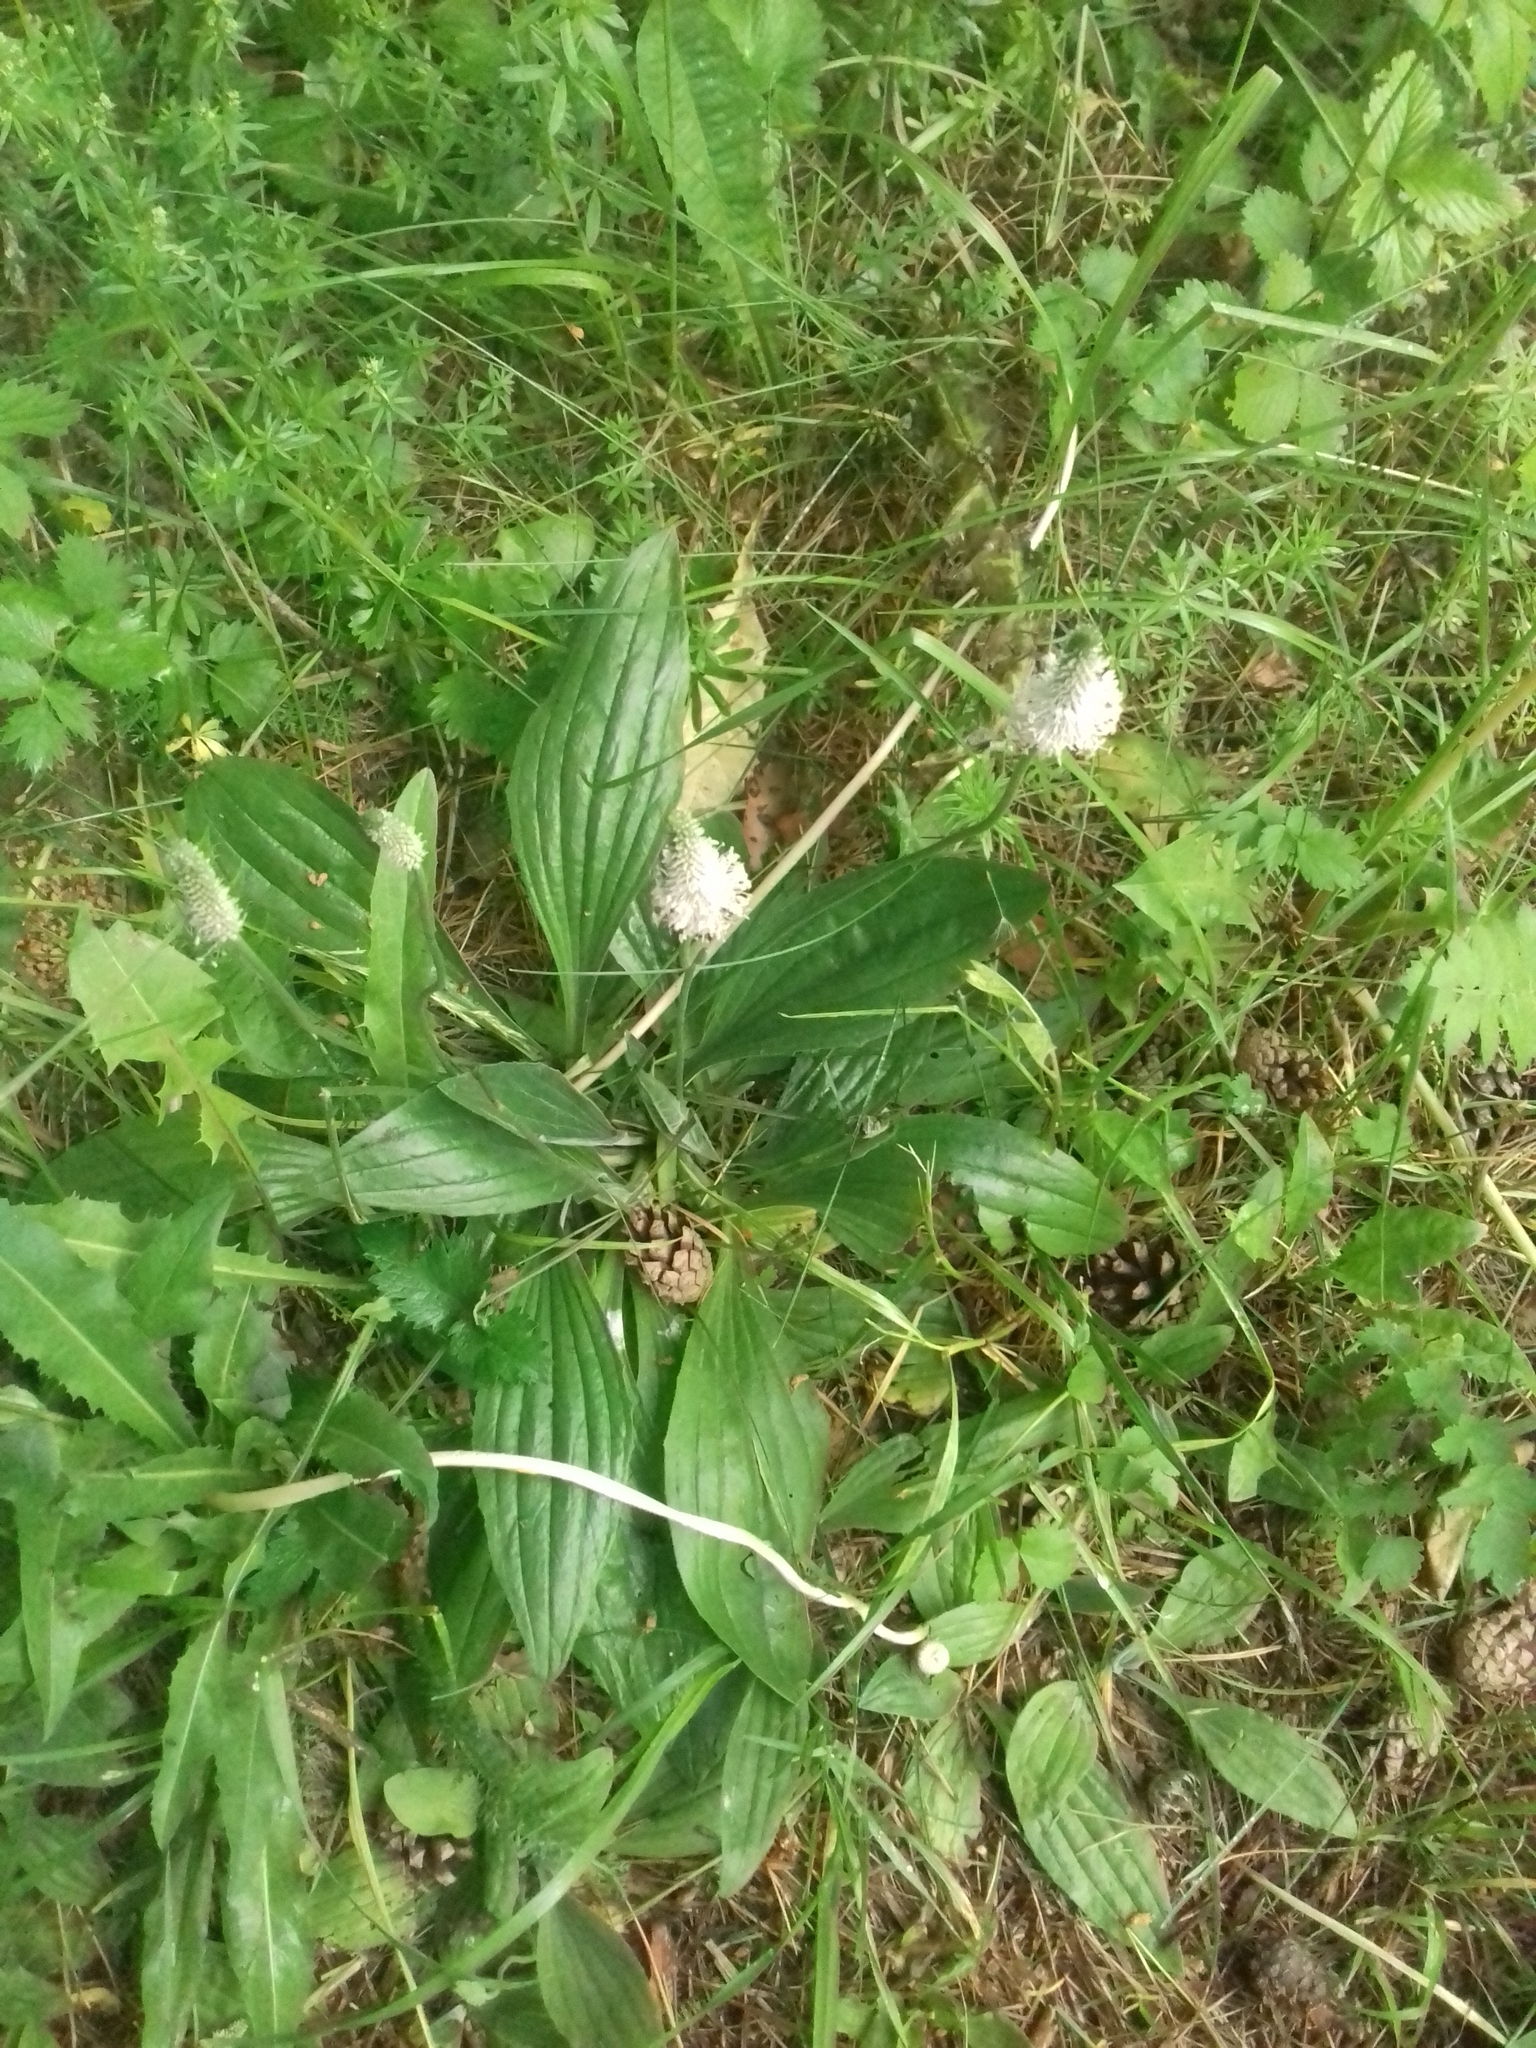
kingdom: Plantae
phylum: Tracheophyta
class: Magnoliopsida
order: Lamiales
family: Plantaginaceae
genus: Plantago
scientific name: Plantago media
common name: Hoary plantain
